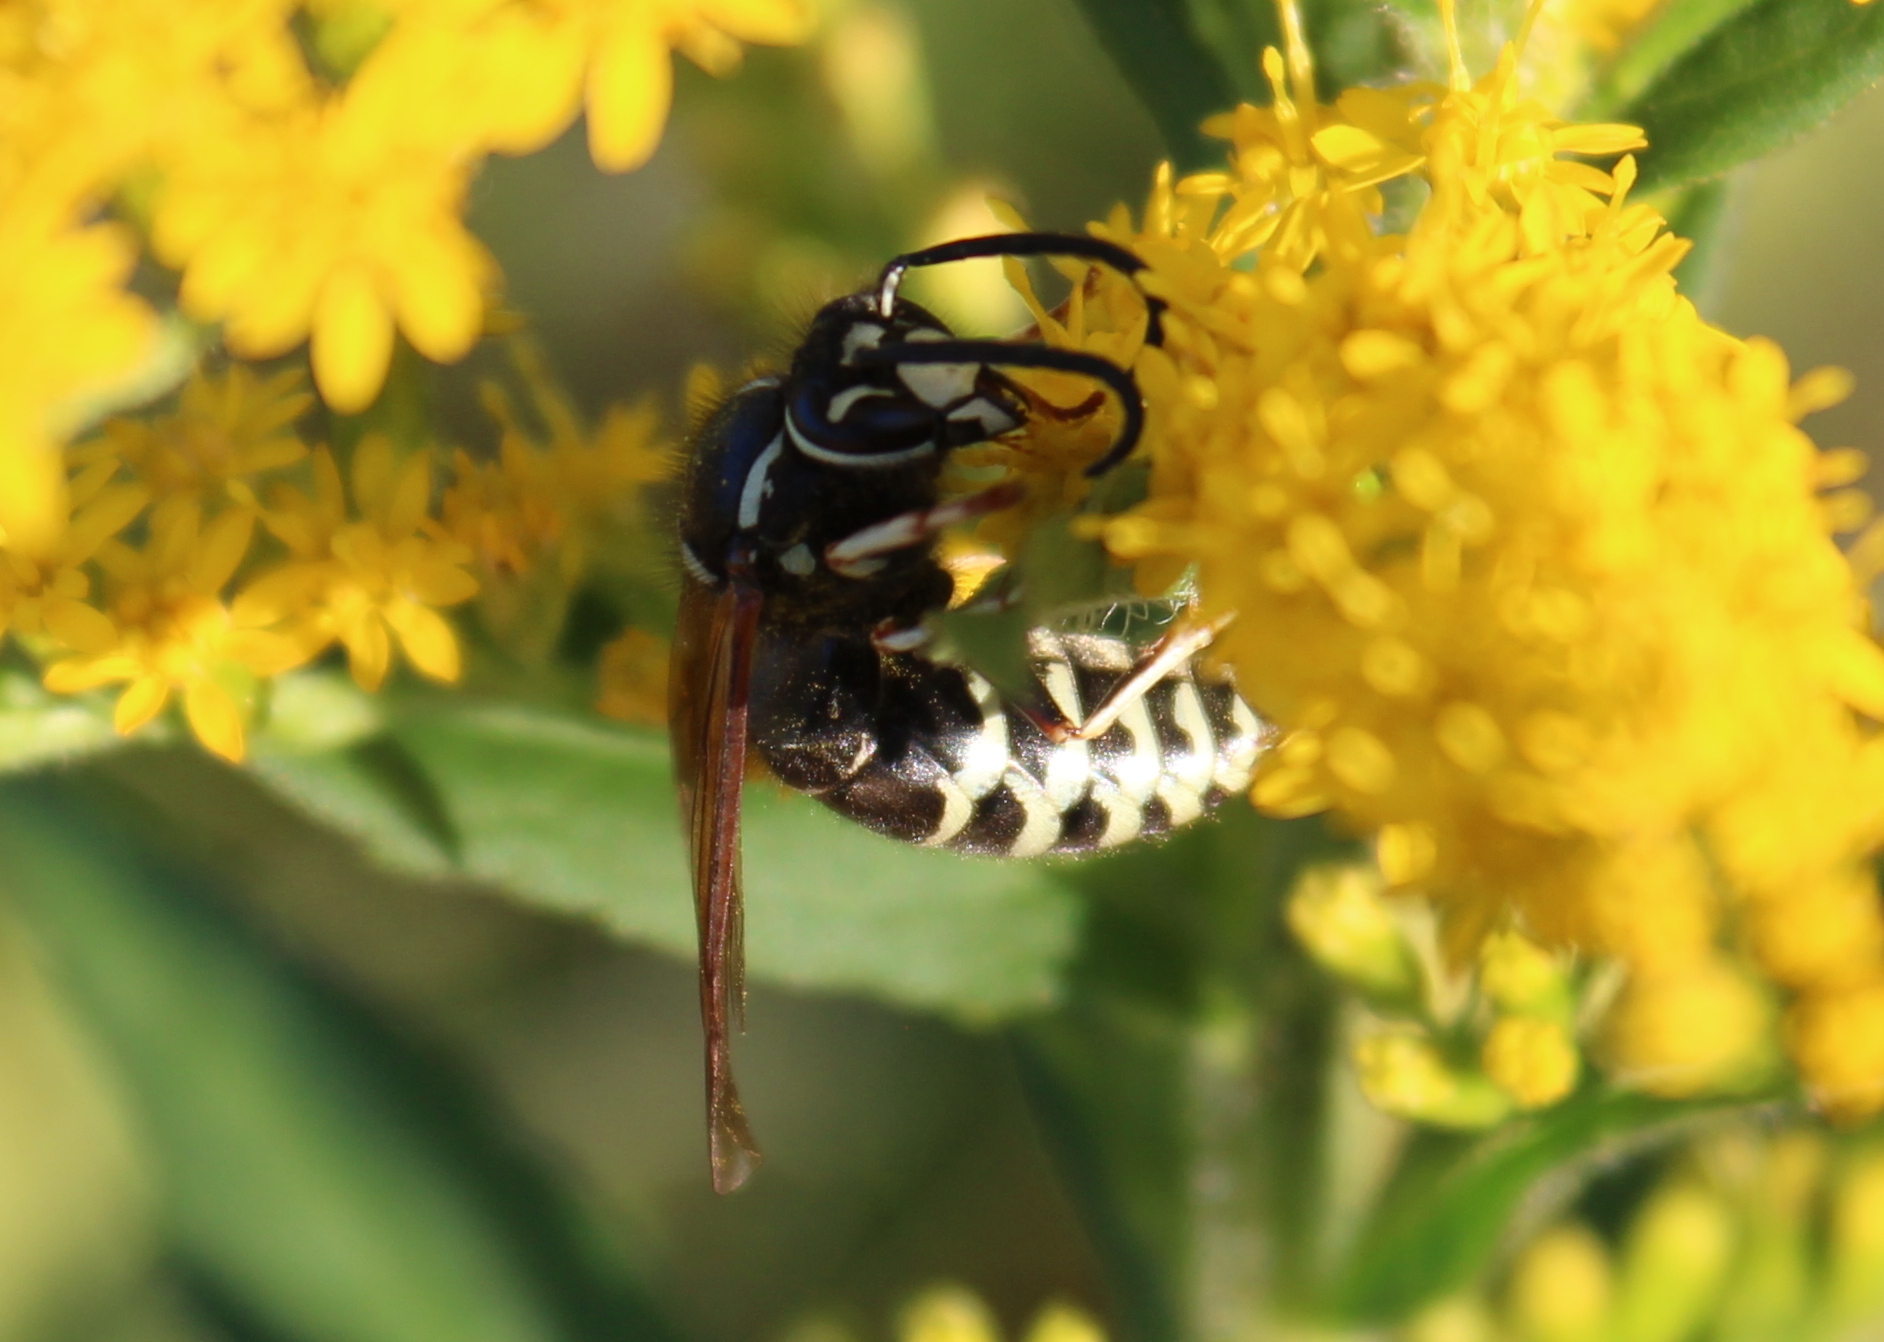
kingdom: Animalia
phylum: Arthropoda
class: Insecta
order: Hymenoptera
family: Vespidae
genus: Vespula
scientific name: Vespula consobrina
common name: Blackjacket
